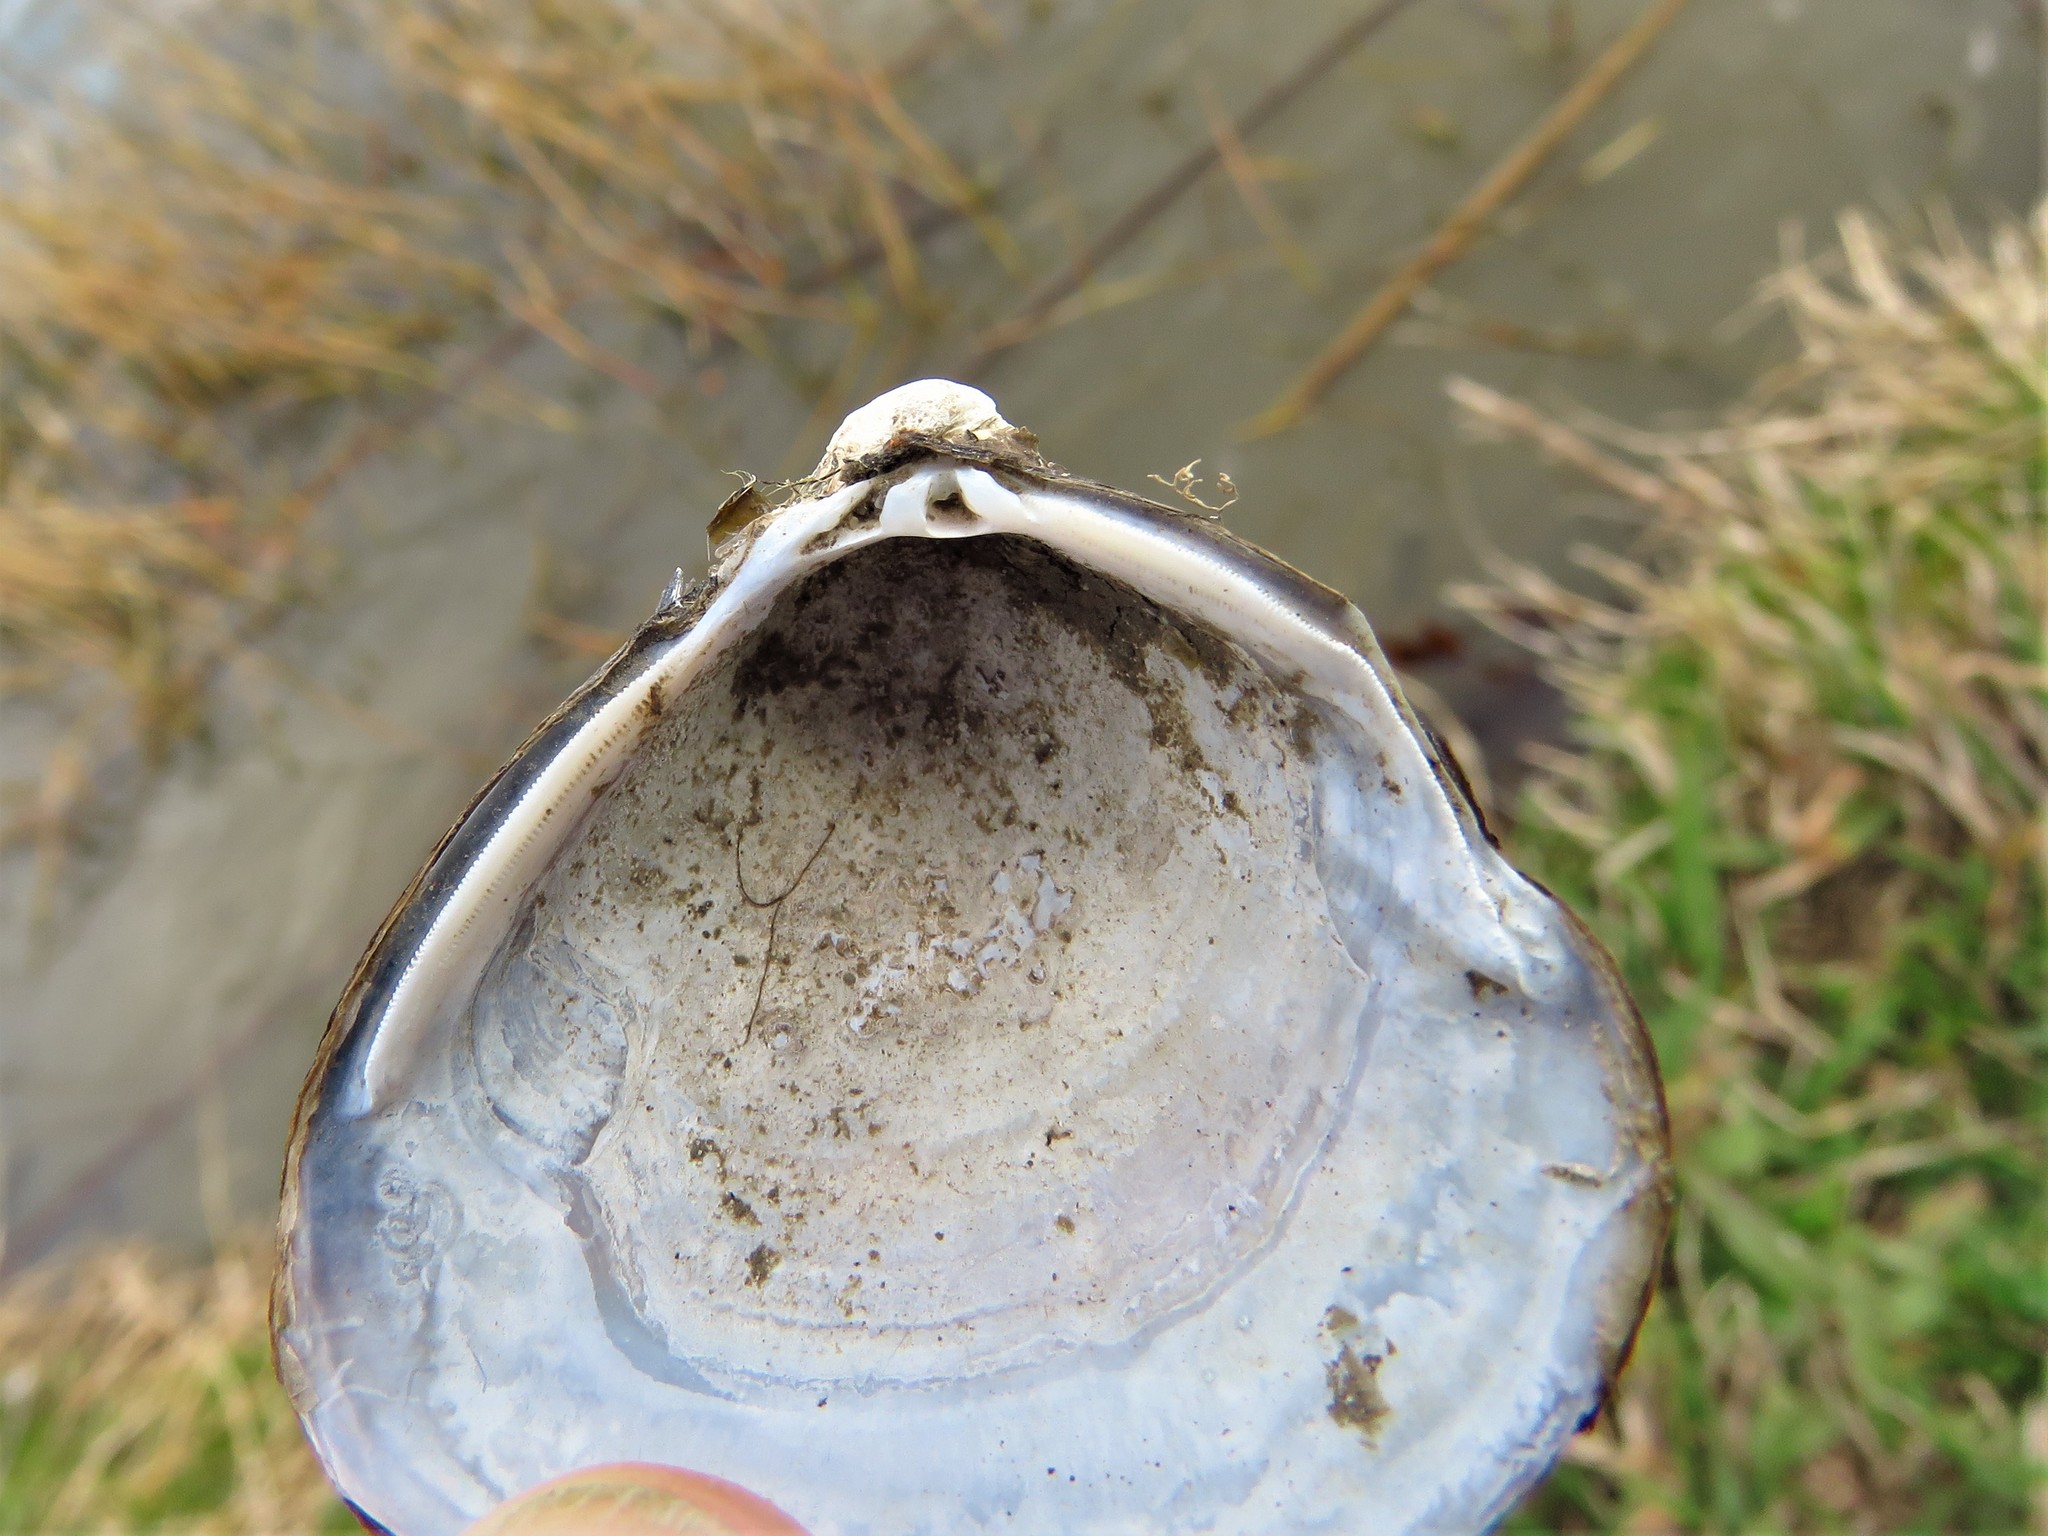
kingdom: Animalia
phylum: Mollusca
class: Bivalvia
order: Venerida
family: Cyrenidae
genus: Corbicula
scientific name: Corbicula fluminea
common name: Asian clam
